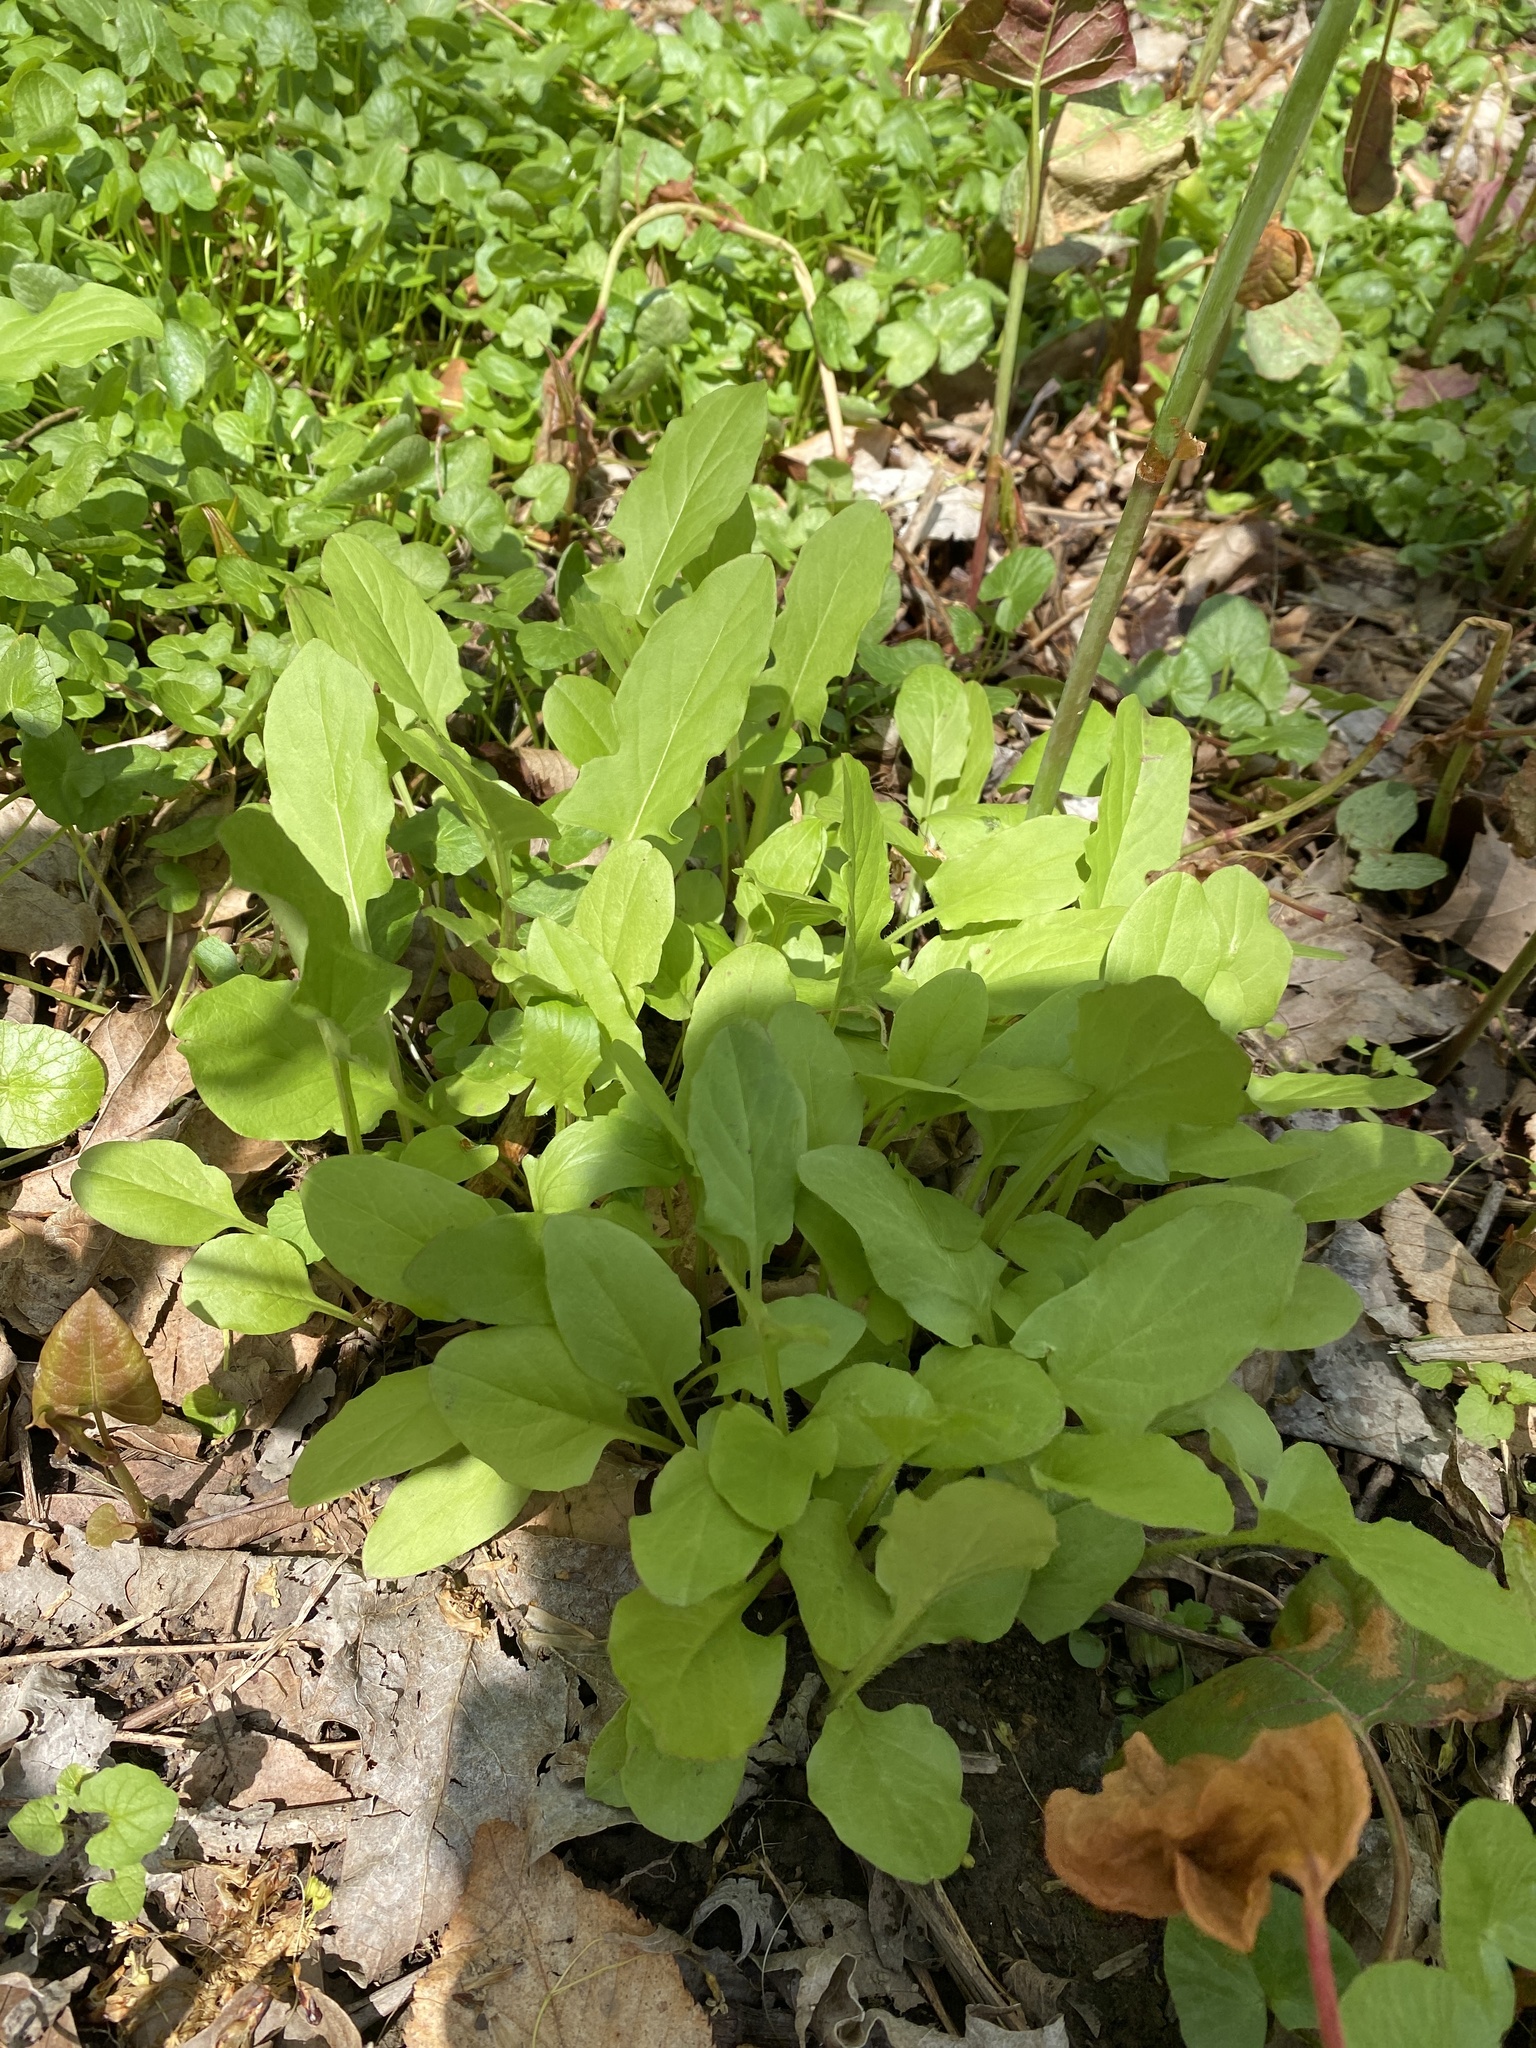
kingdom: Plantae
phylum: Tracheophyta
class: Magnoliopsida
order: Asterales
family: Asteraceae
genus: Nabalus
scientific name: Nabalus crepidineus
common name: Nodding rattlesnakeroot
